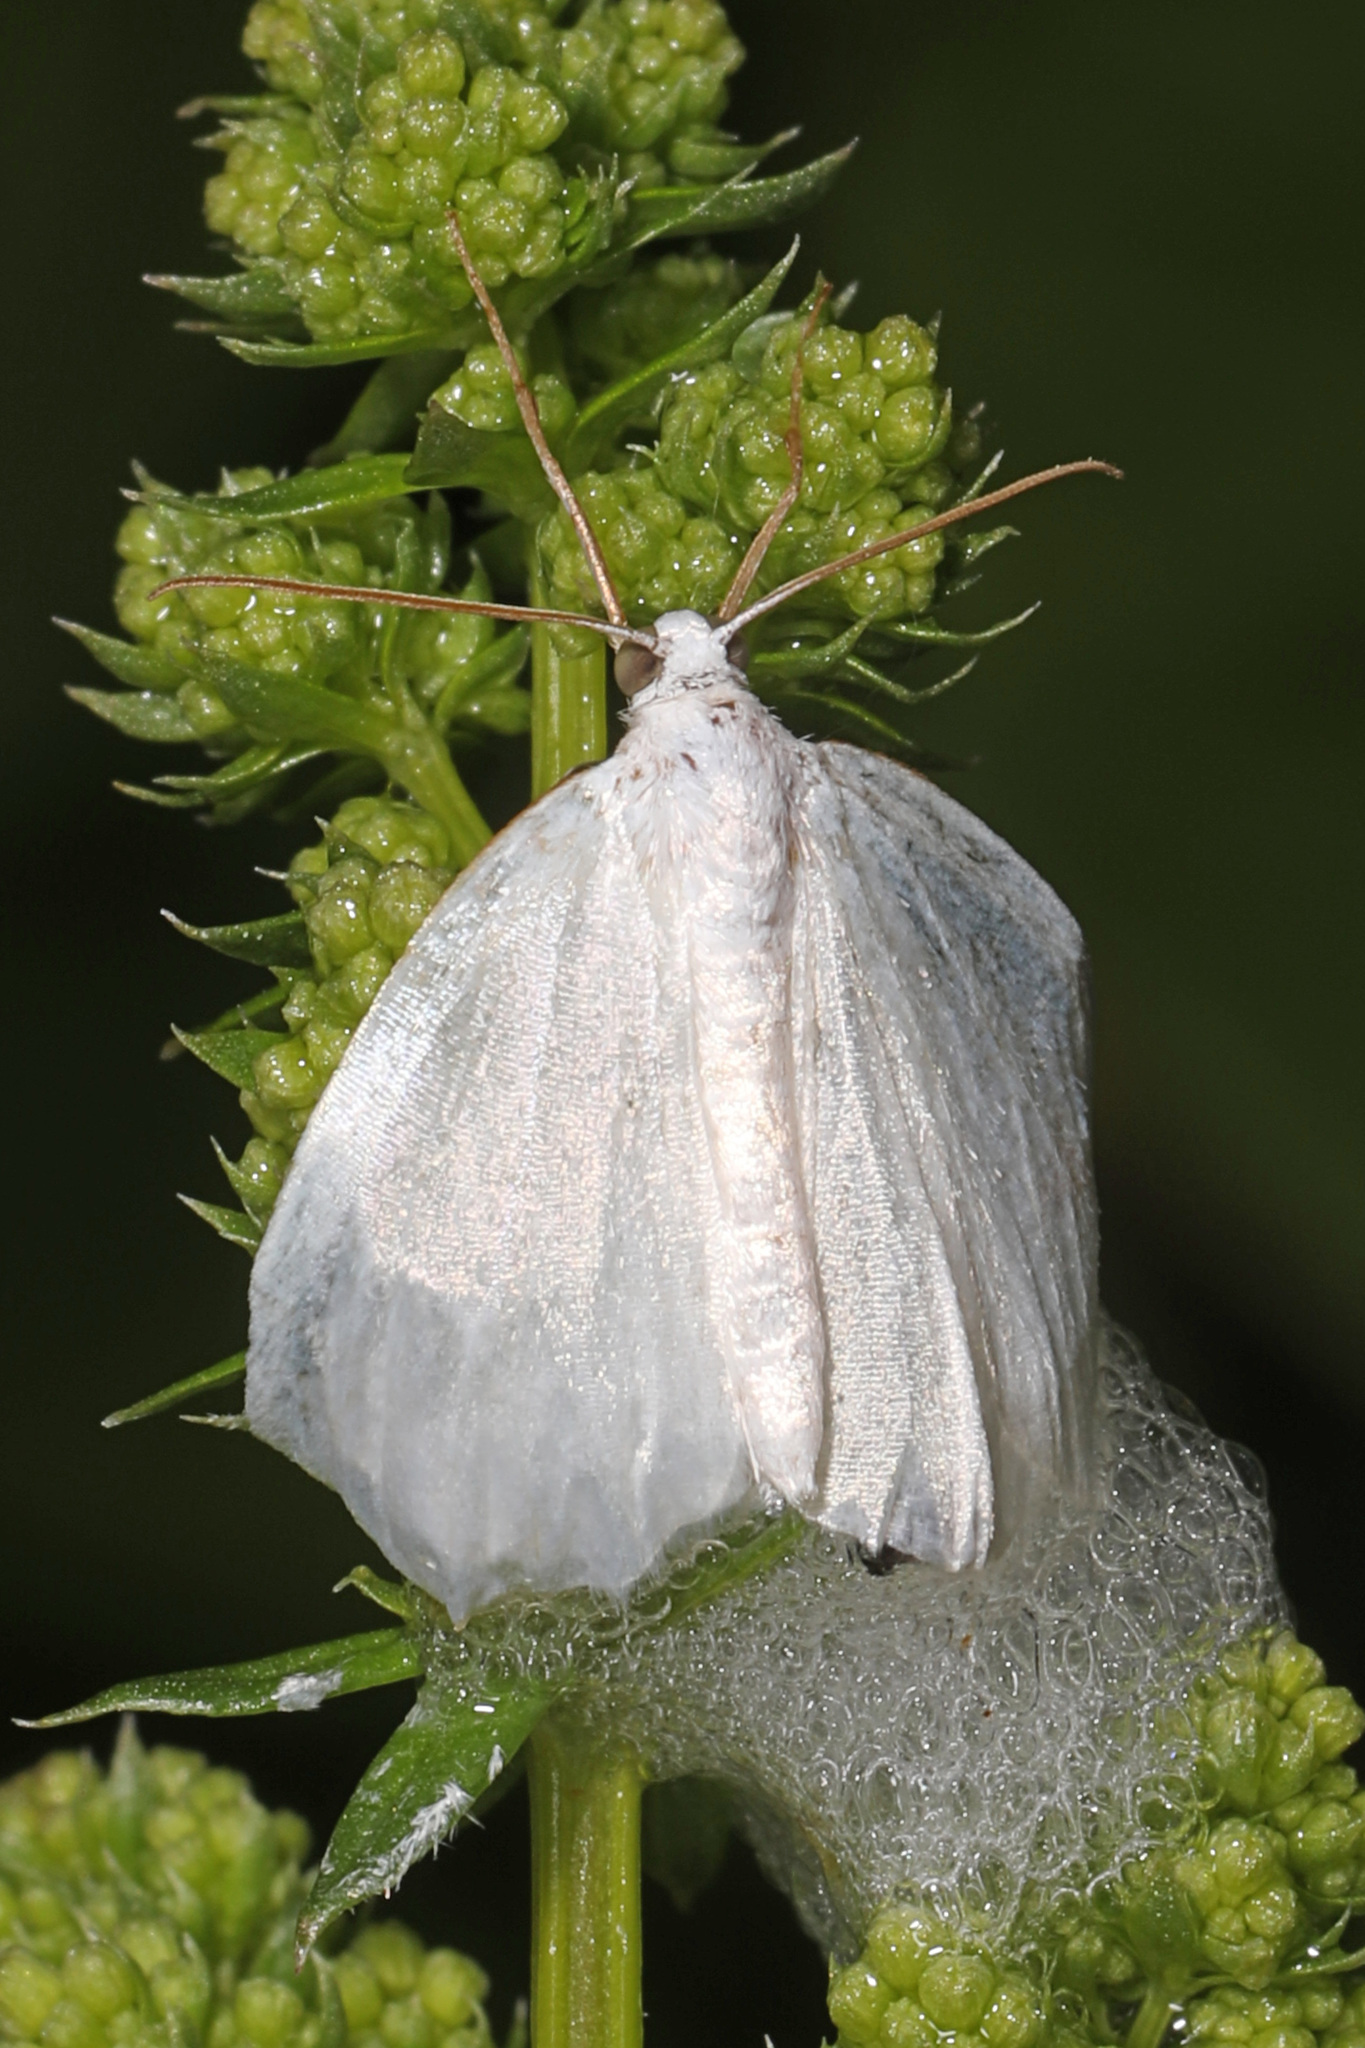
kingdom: Animalia
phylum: Arthropoda
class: Insecta
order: Lepidoptera
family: Geometridae
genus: Lomographa
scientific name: Lomographa vestaliata
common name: White spring moth
